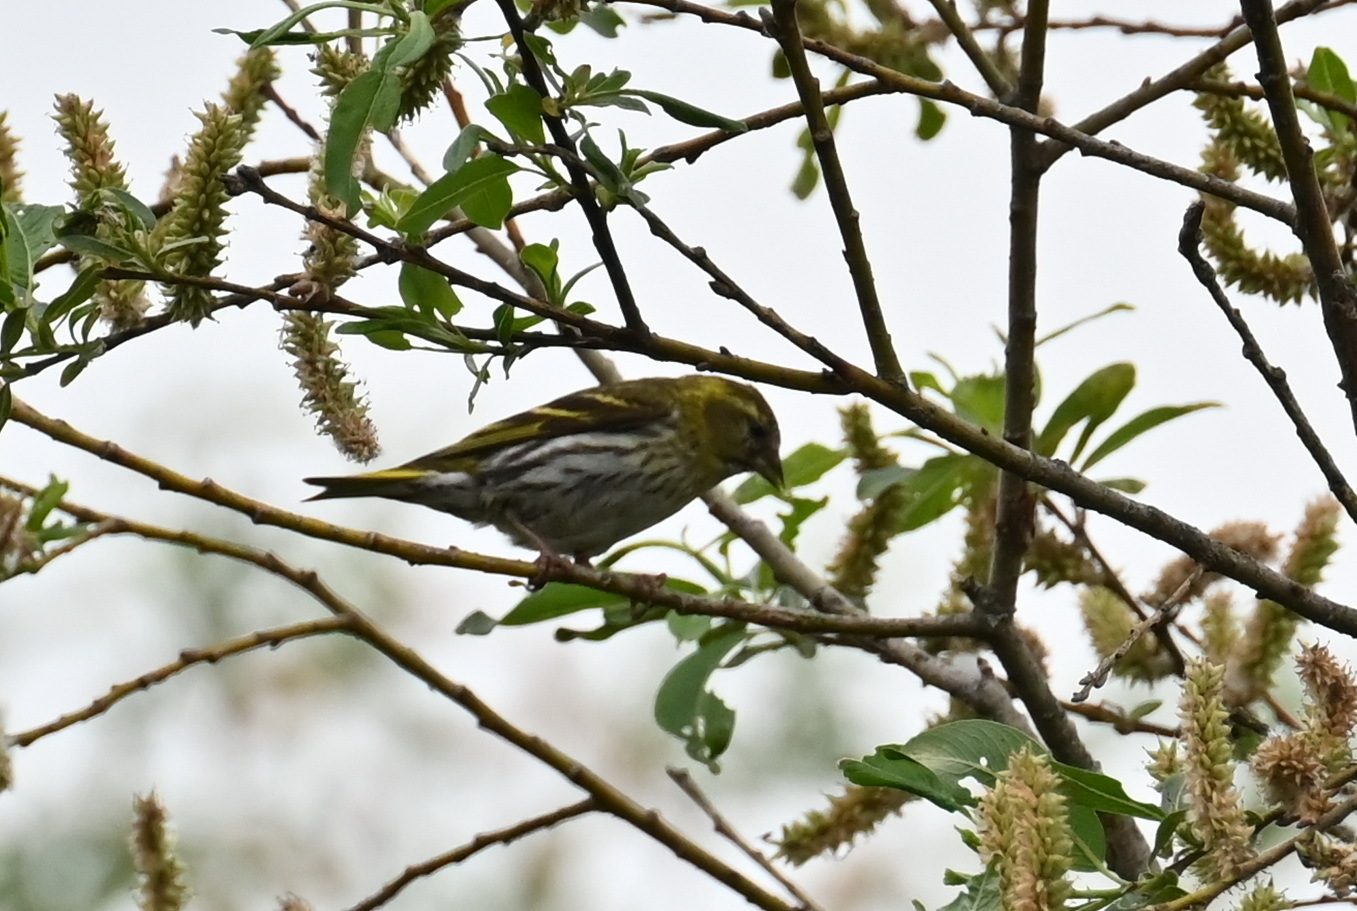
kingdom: Animalia
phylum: Chordata
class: Aves
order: Passeriformes
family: Fringillidae
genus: Spinus
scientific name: Spinus spinus
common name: Eurasian siskin
